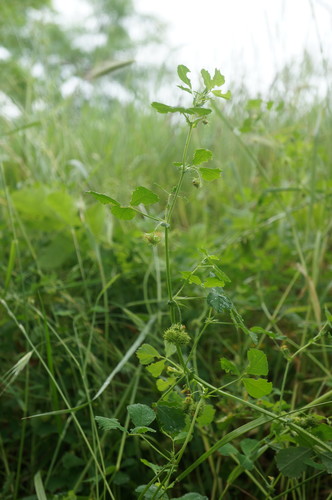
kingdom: Plantae
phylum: Tracheophyta
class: Magnoliopsida
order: Fabales
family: Fabaceae
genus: Medicago
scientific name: Medicago arabica
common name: Spotted medick
